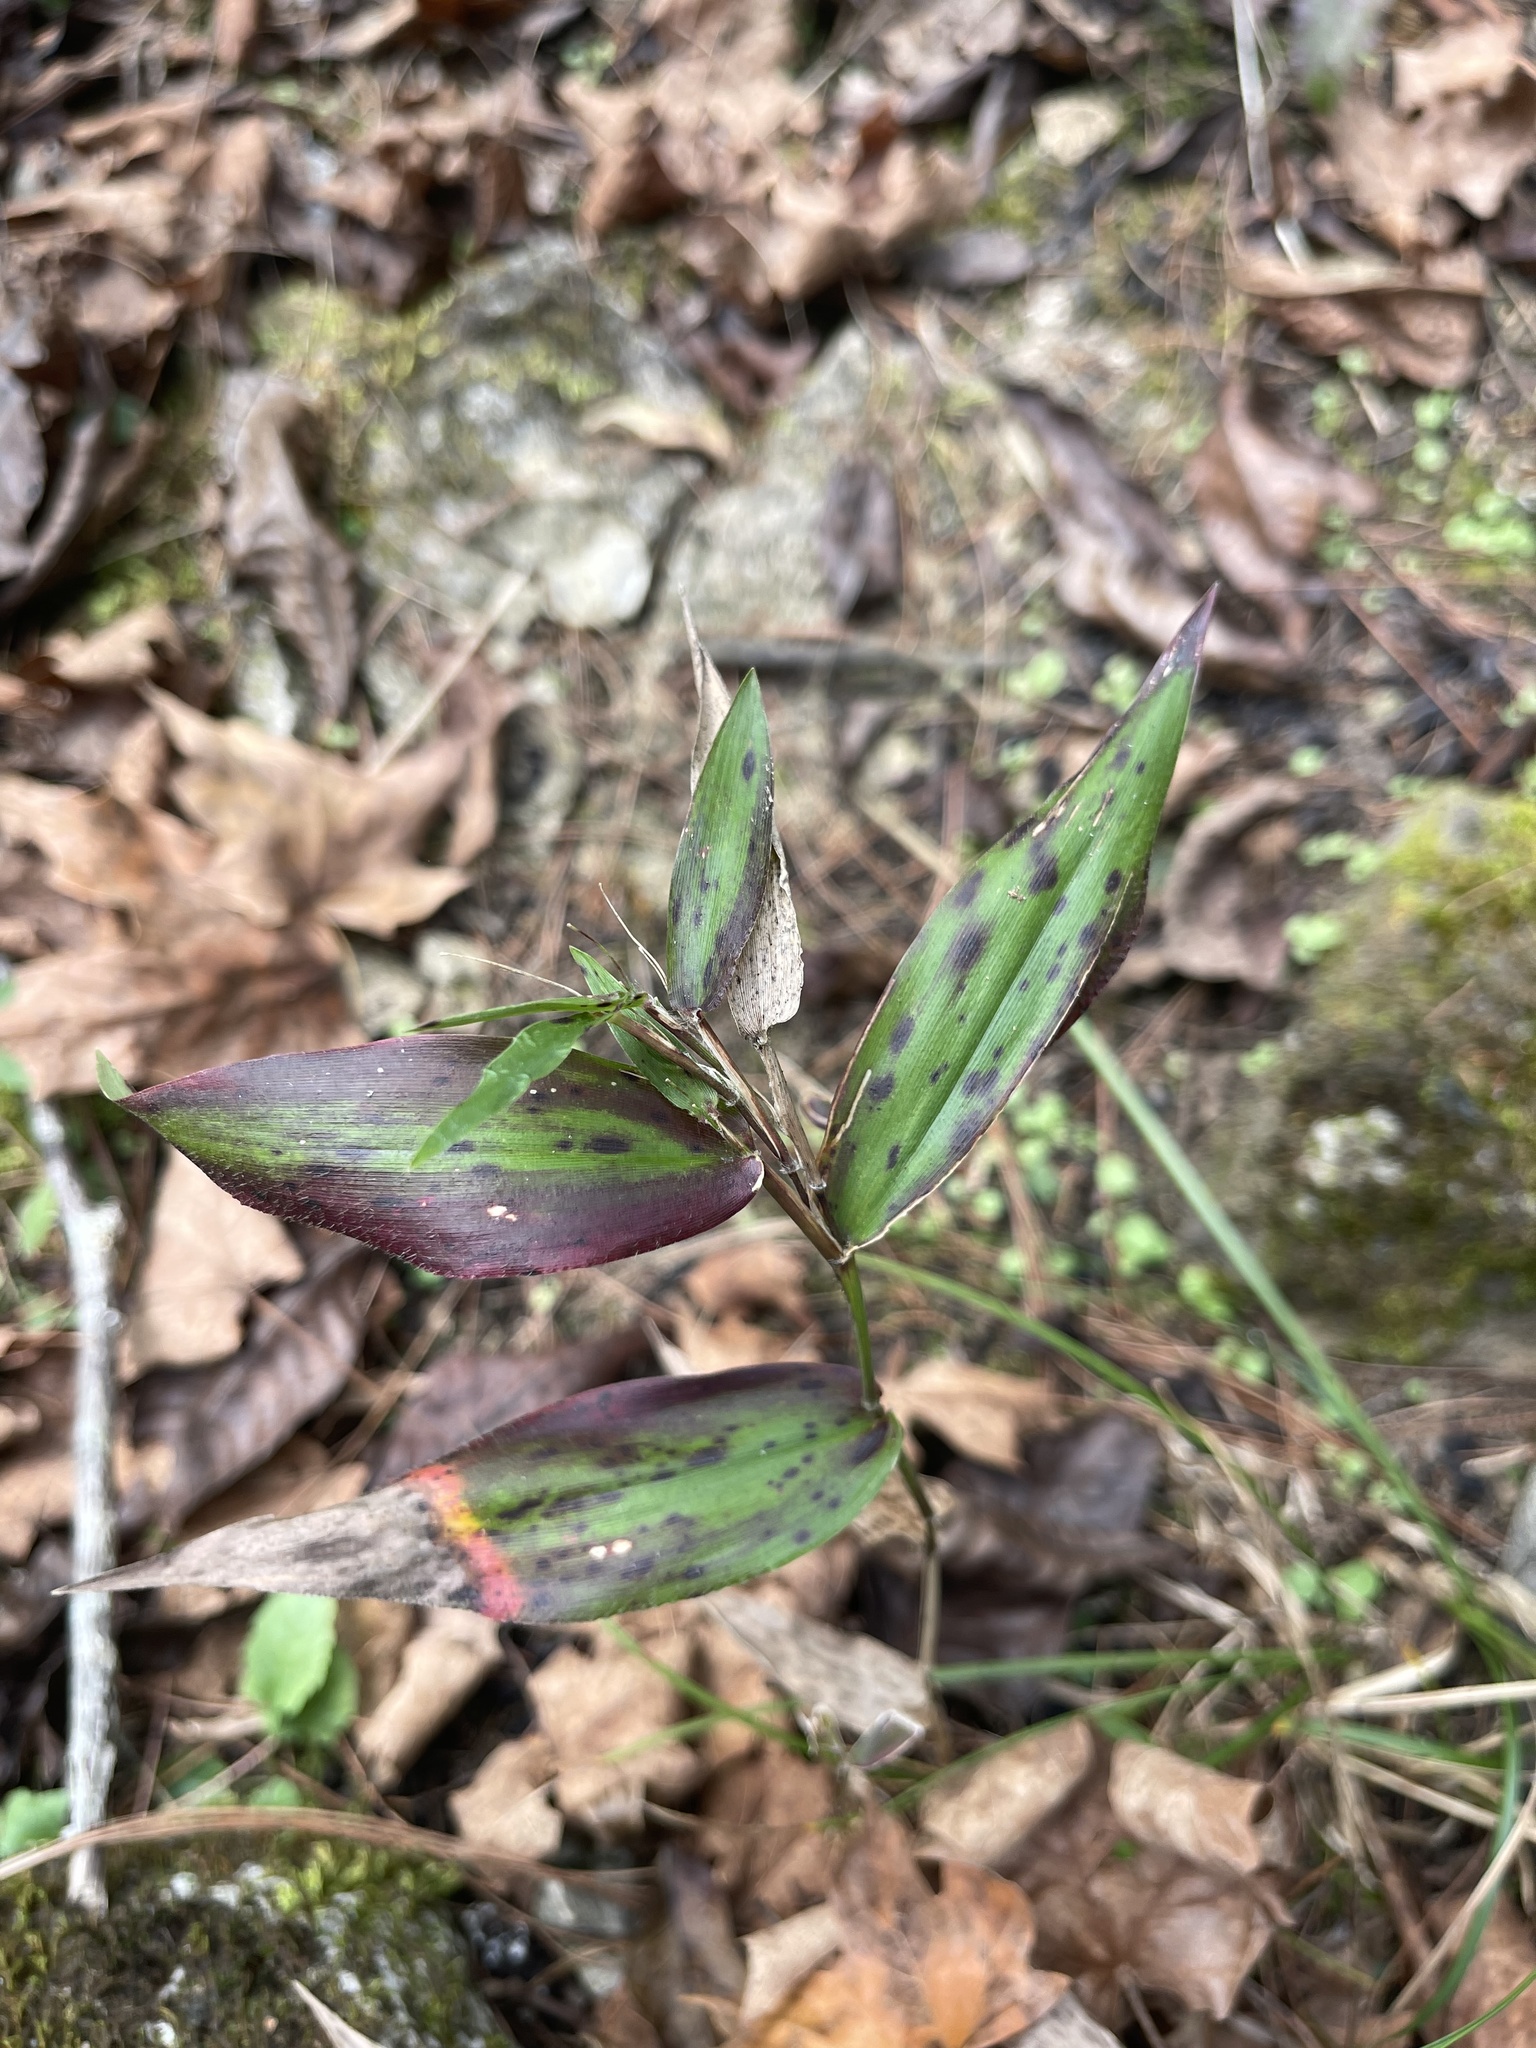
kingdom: Plantae
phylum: Tracheophyta
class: Liliopsida
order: Poales
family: Poaceae
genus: Dichanthelium
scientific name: Dichanthelium boscii
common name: Bosc's panic grass
